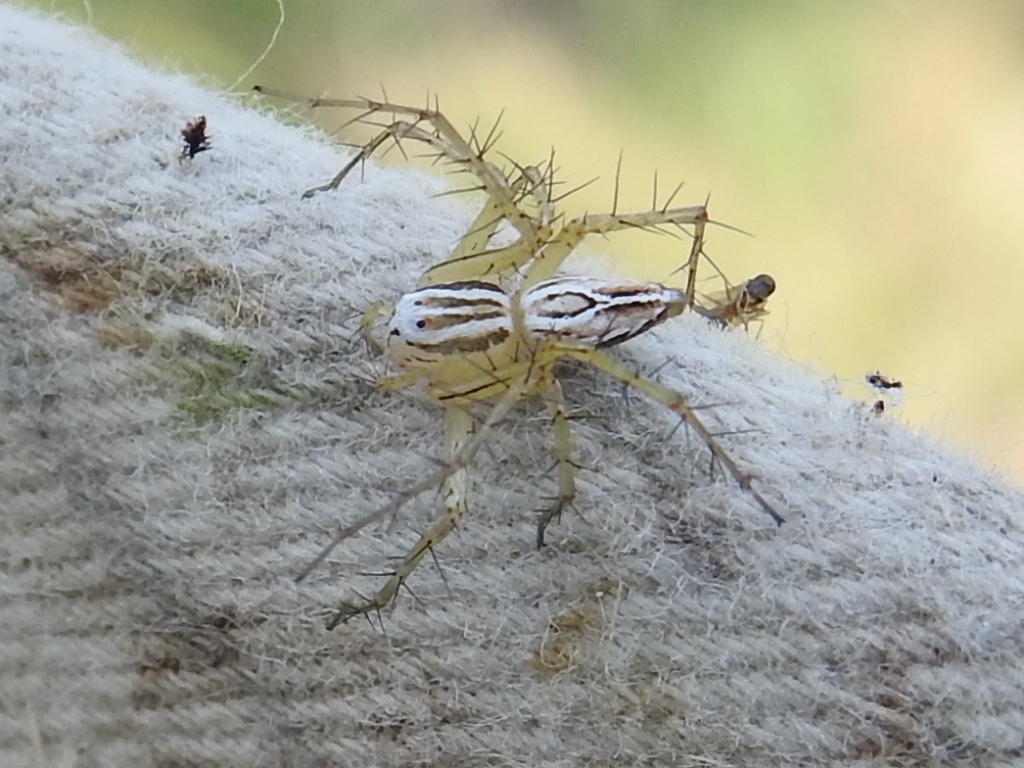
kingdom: Animalia
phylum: Arthropoda
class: Arachnida
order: Araneae
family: Oxyopidae
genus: Oxyopes
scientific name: Oxyopes salticus
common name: Lynx spiders
